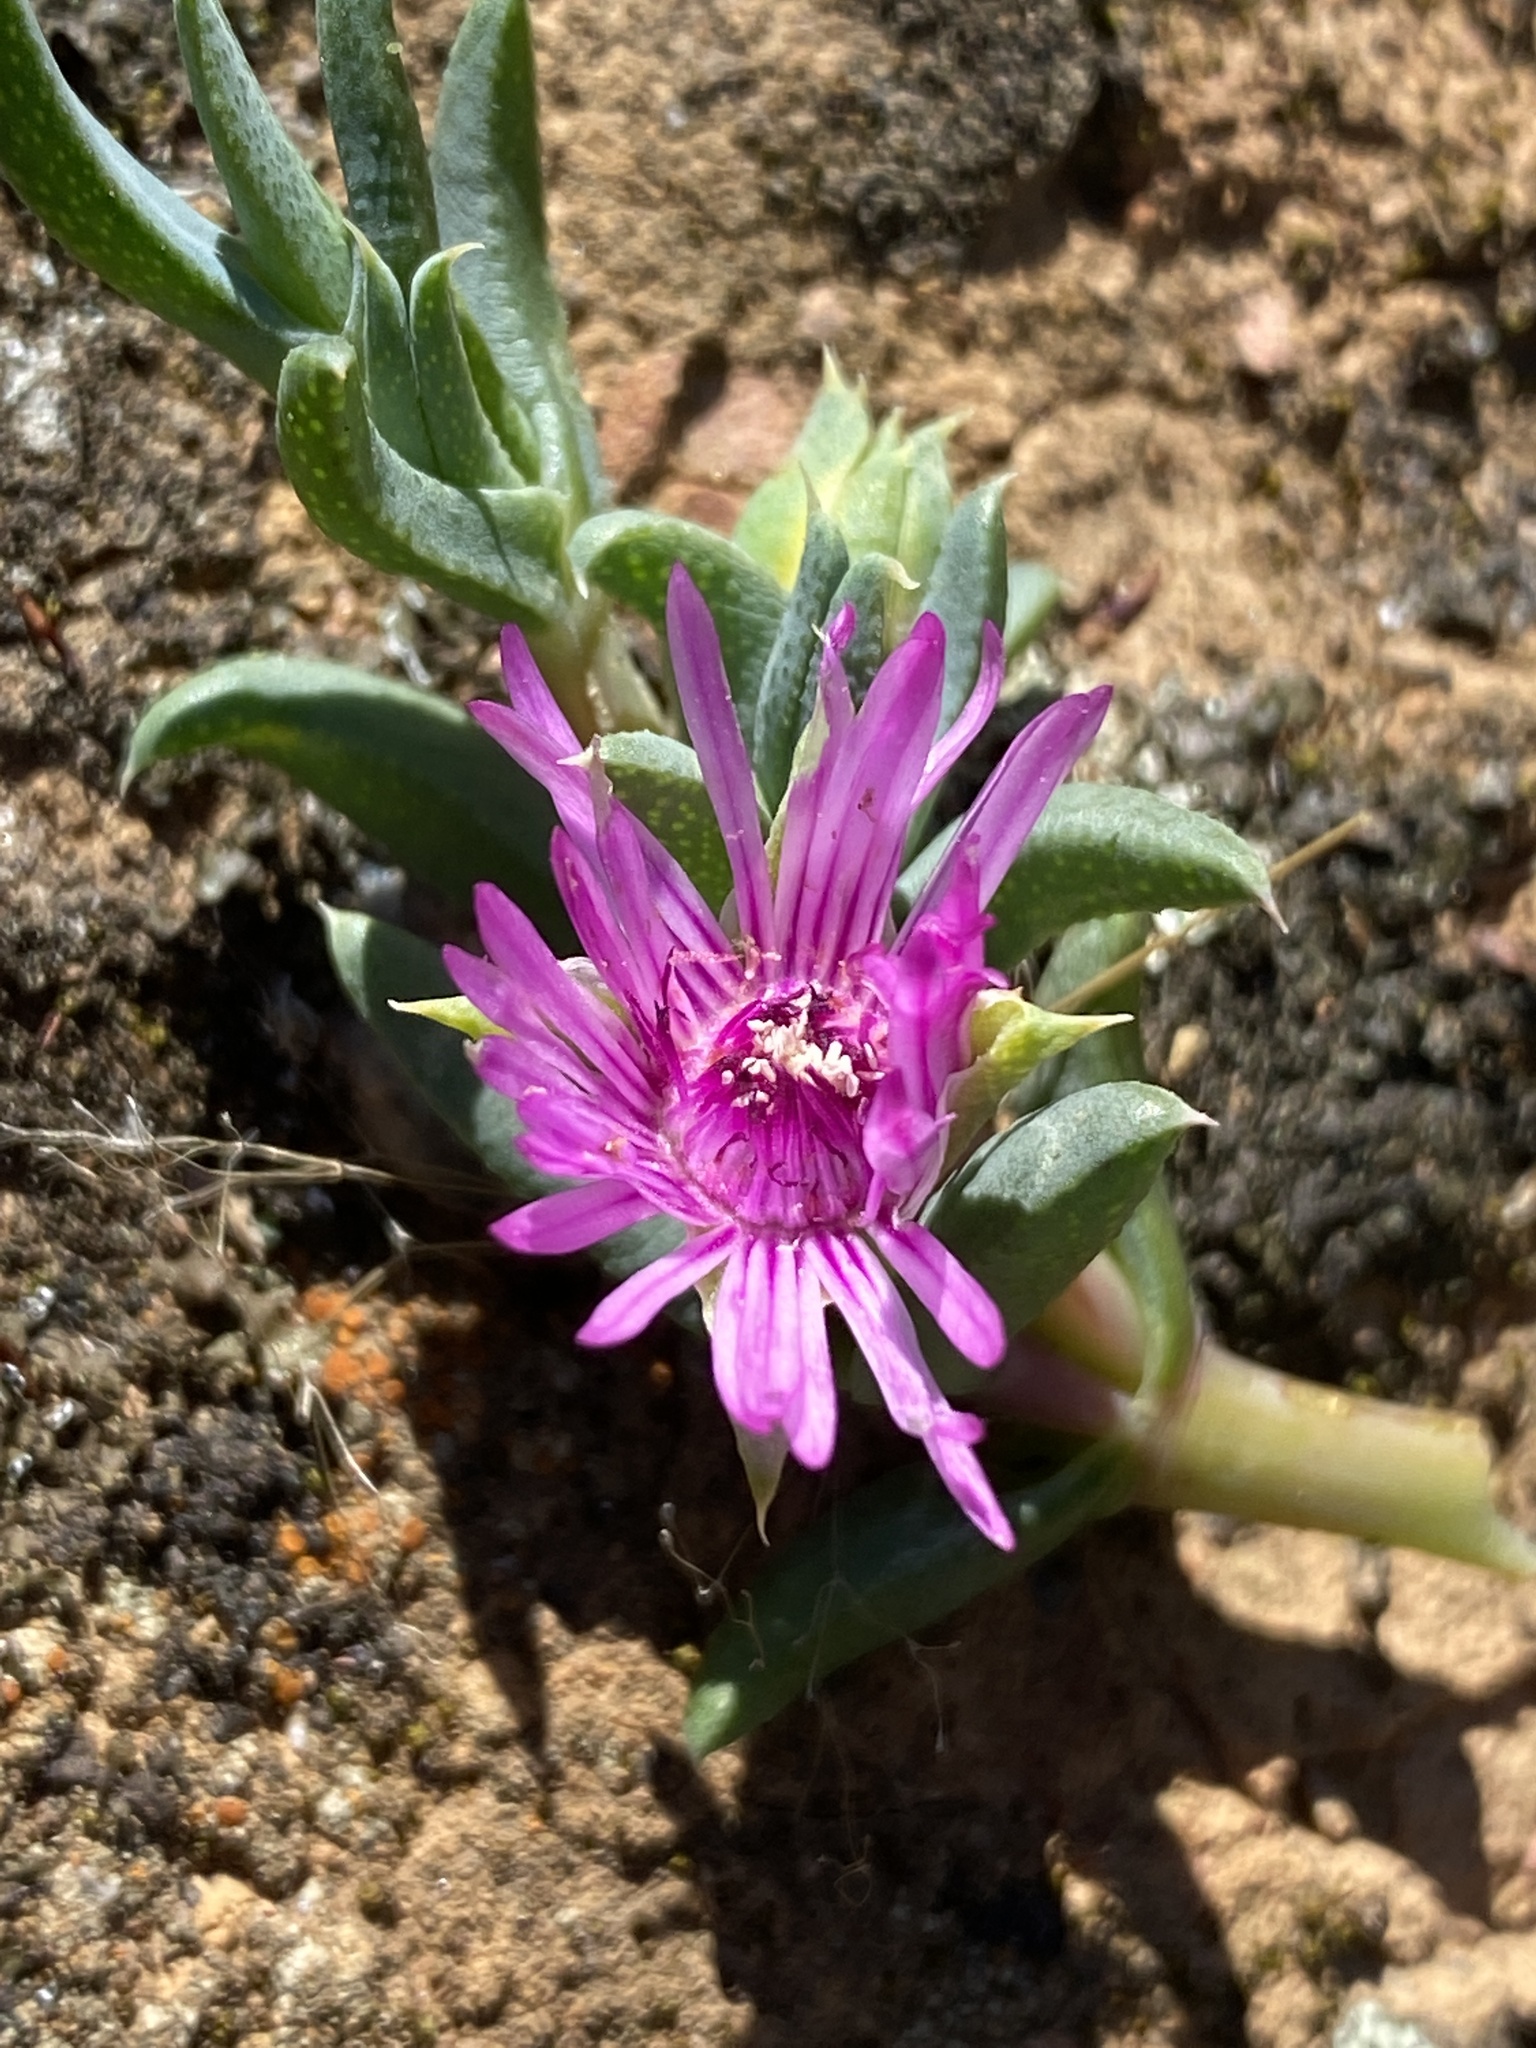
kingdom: Plantae
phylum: Tracheophyta
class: Magnoliopsida
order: Caryophyllales
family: Aizoaceae
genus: Antimima
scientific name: Antimima leipoldtii
